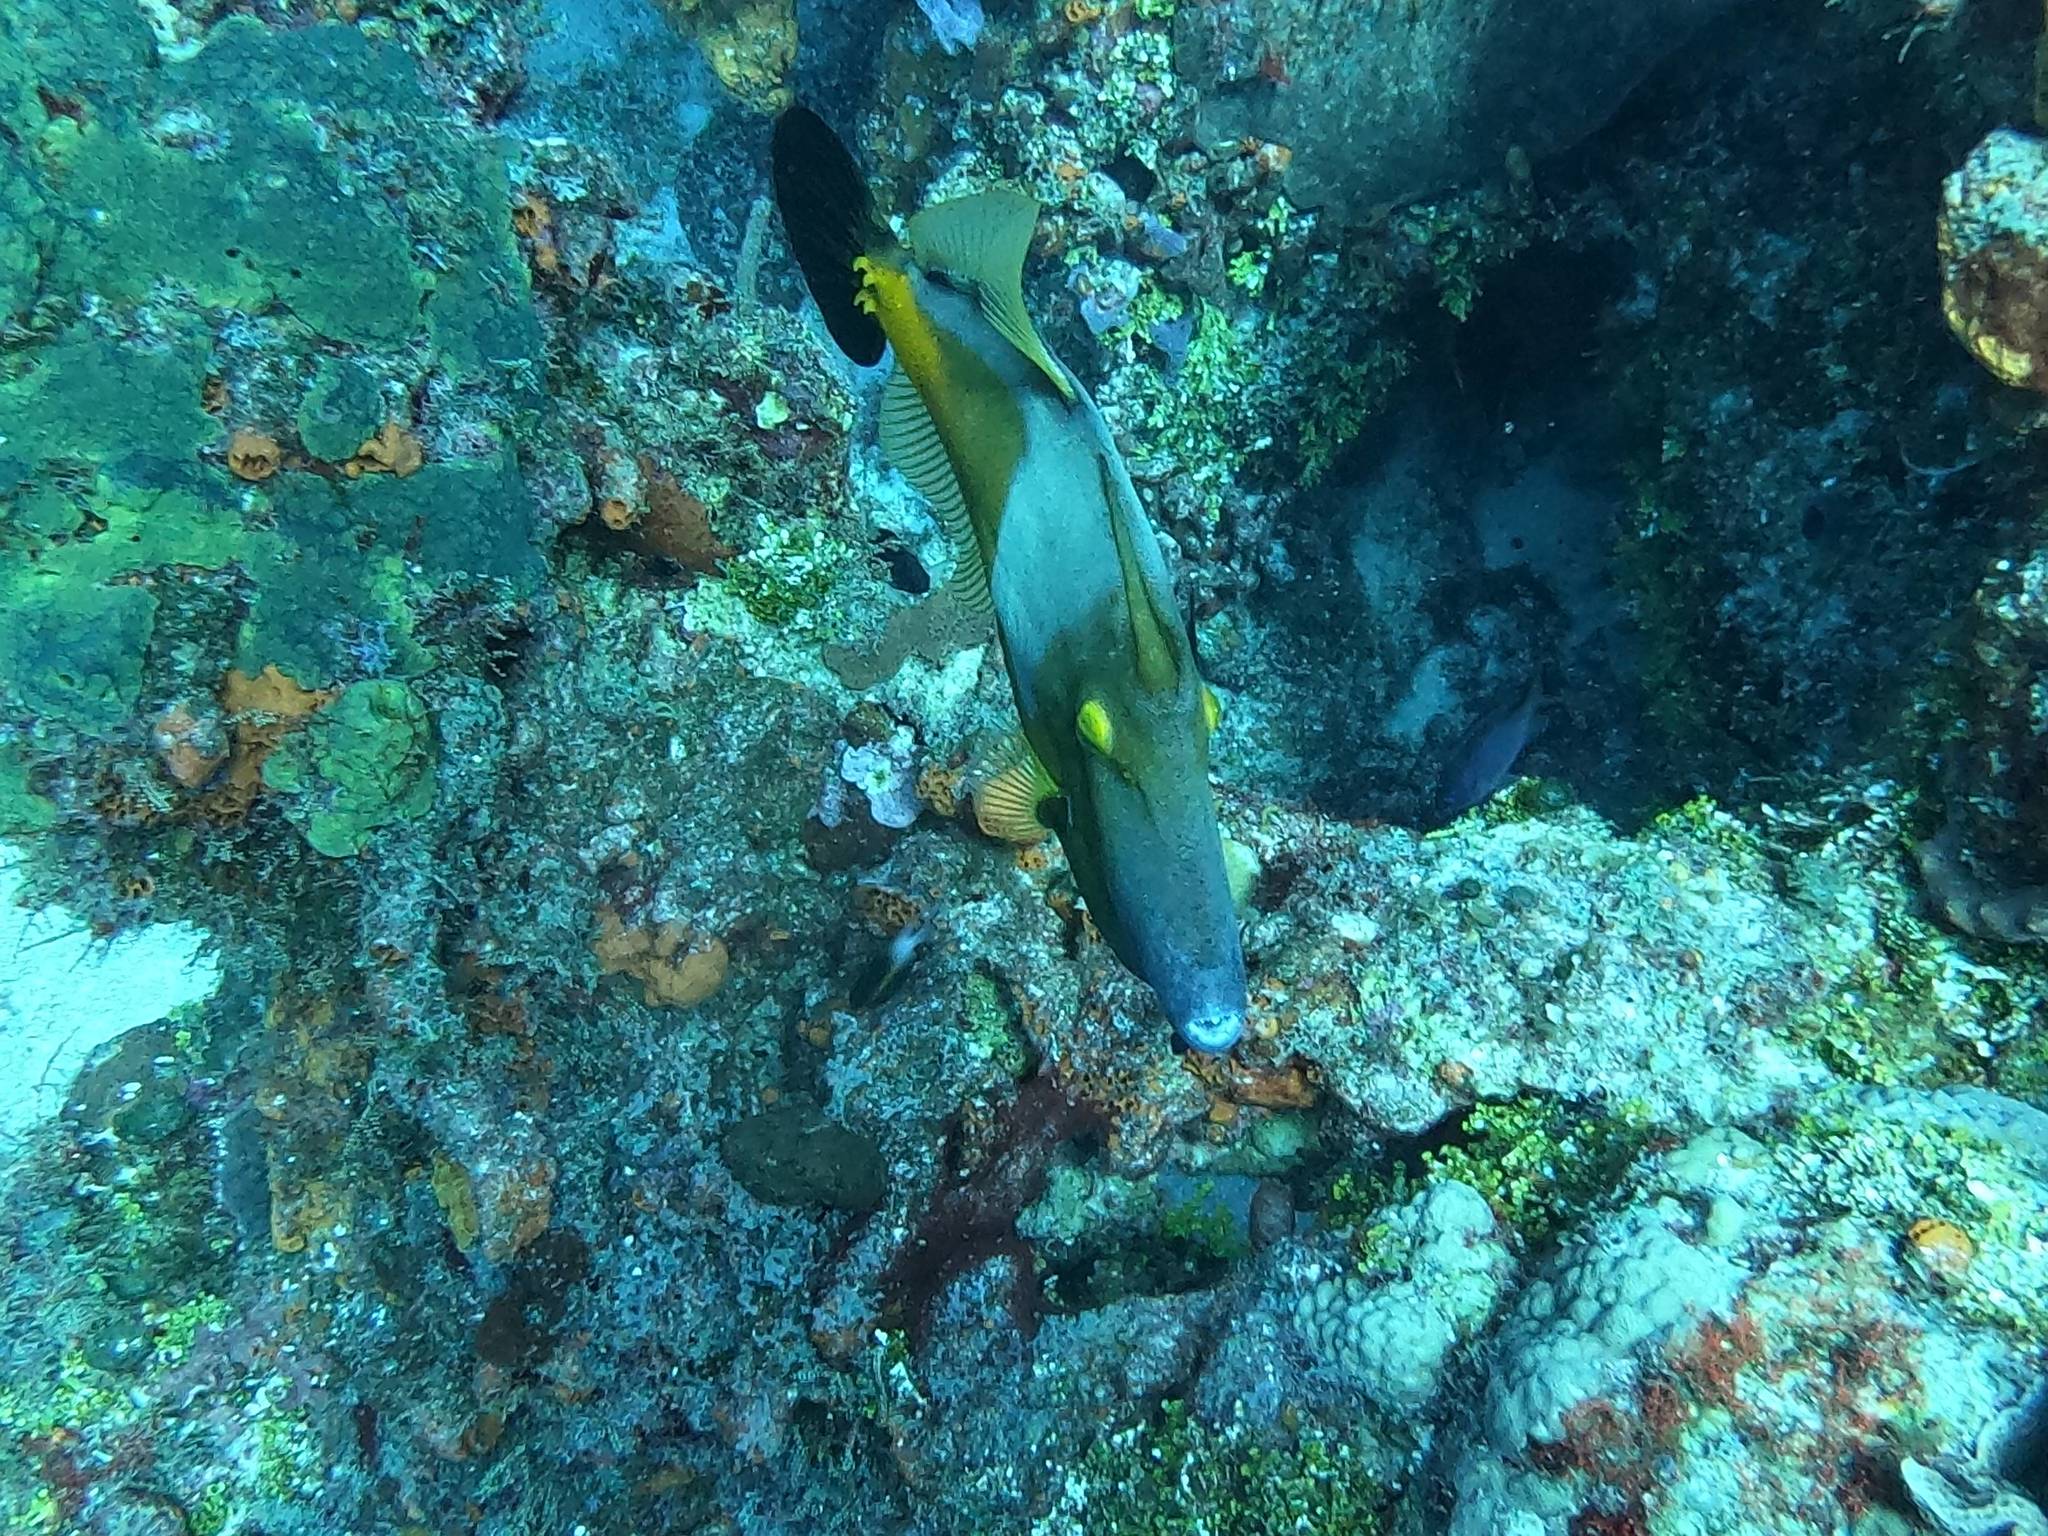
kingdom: Animalia
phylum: Chordata
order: Tetraodontiformes
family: Monacanthidae
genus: Cantherhines
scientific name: Cantherhines macrocerus
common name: Whitespotted filefish
